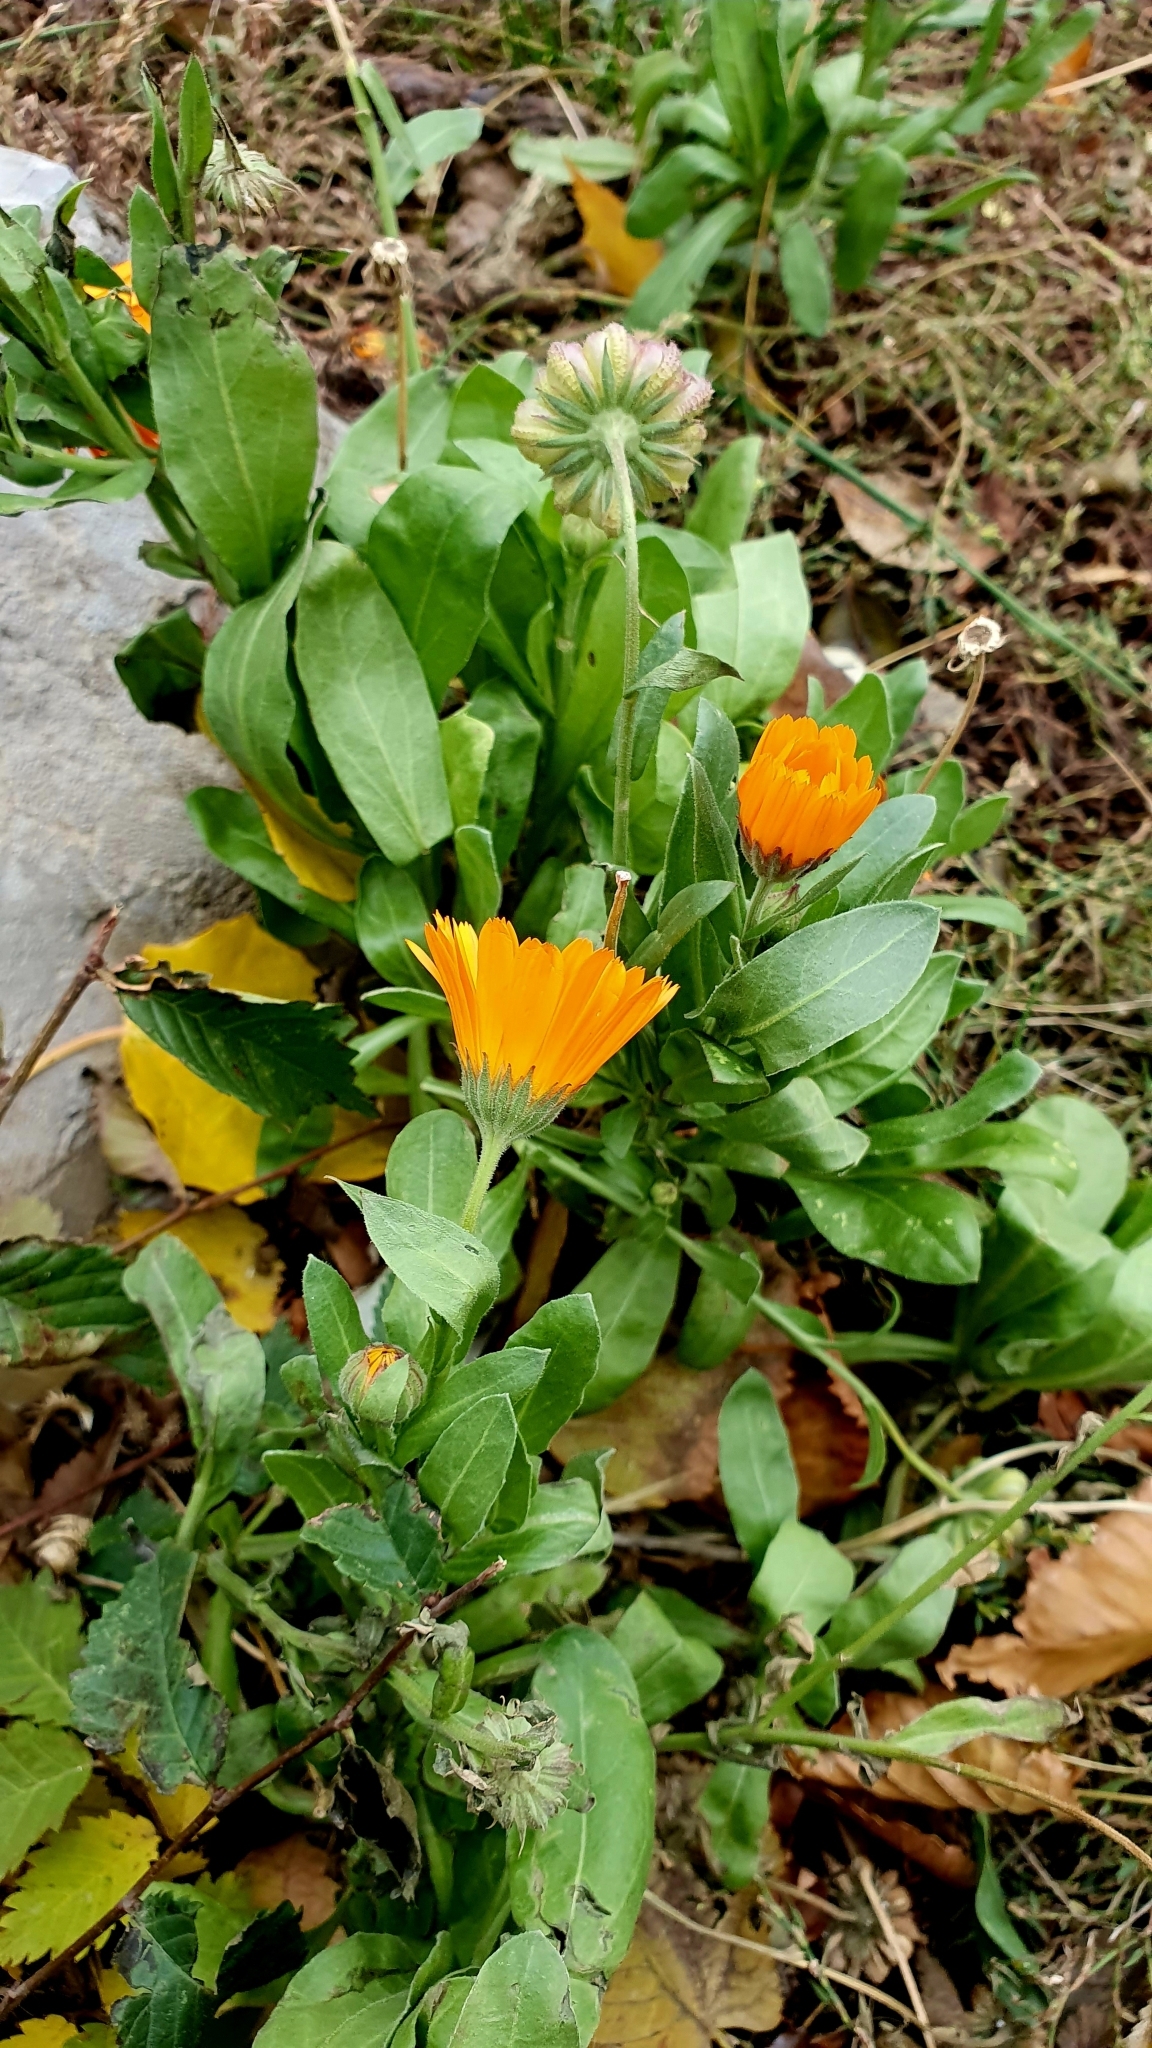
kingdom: Plantae
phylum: Tracheophyta
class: Magnoliopsida
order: Asterales
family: Asteraceae
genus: Calendula
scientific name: Calendula officinalis
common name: Pot marigold
